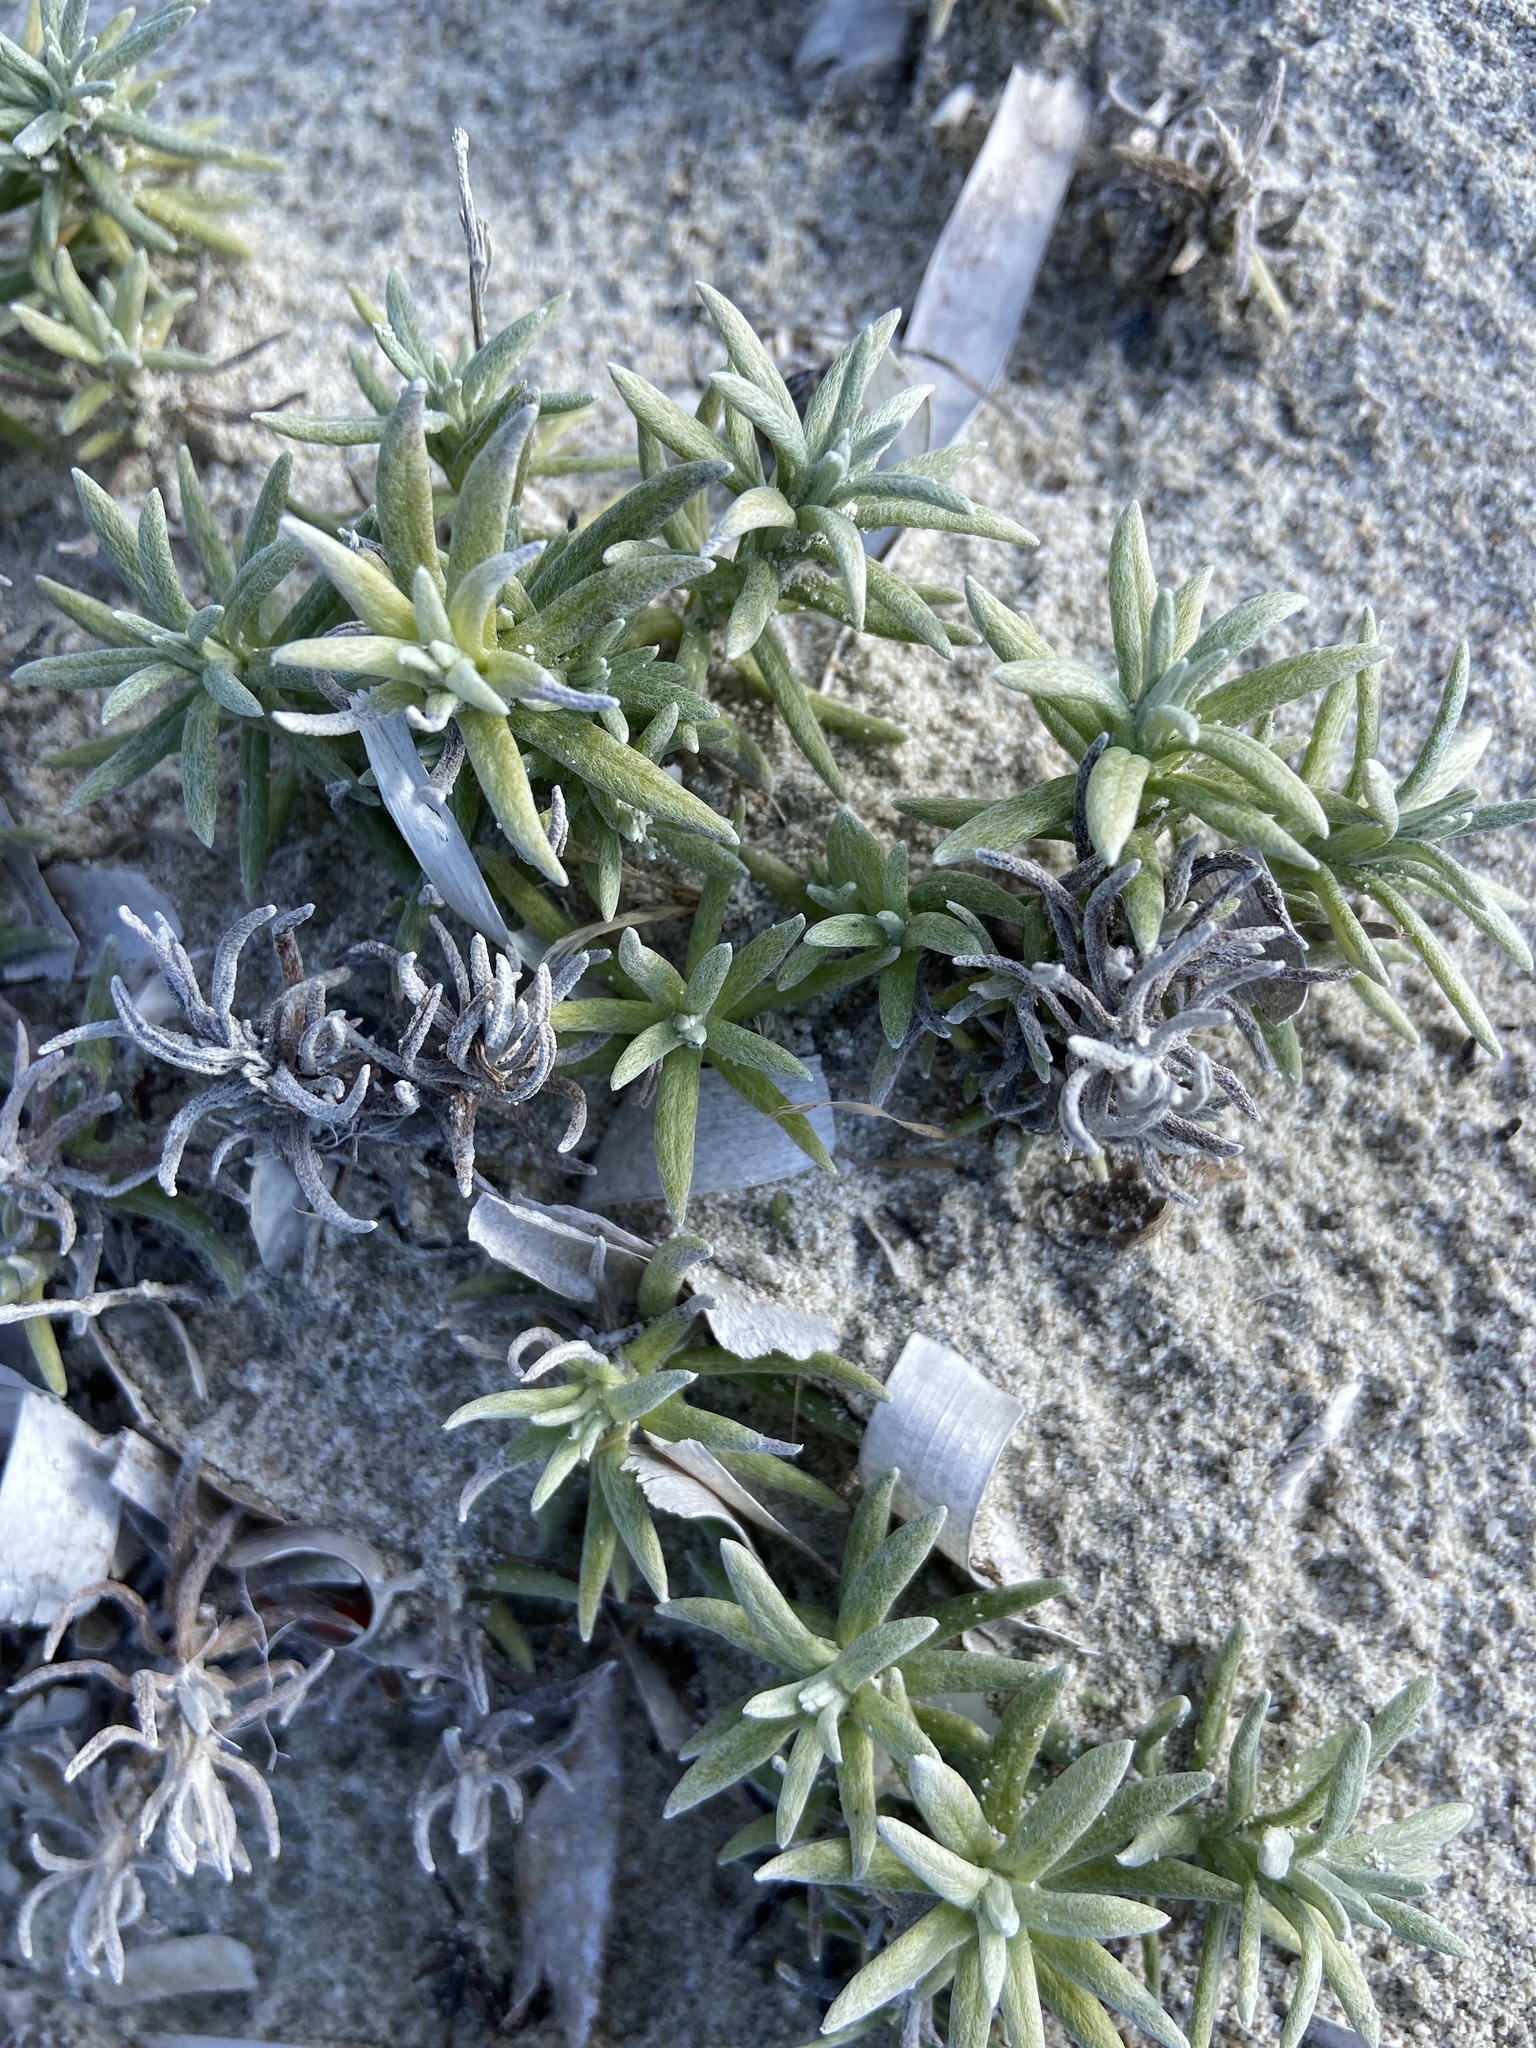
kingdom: Plantae
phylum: Tracheophyta
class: Magnoliopsida
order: Asterales
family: Asteraceae
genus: Helichrysum
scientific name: Helichrysum stoechas
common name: Goldilocks
